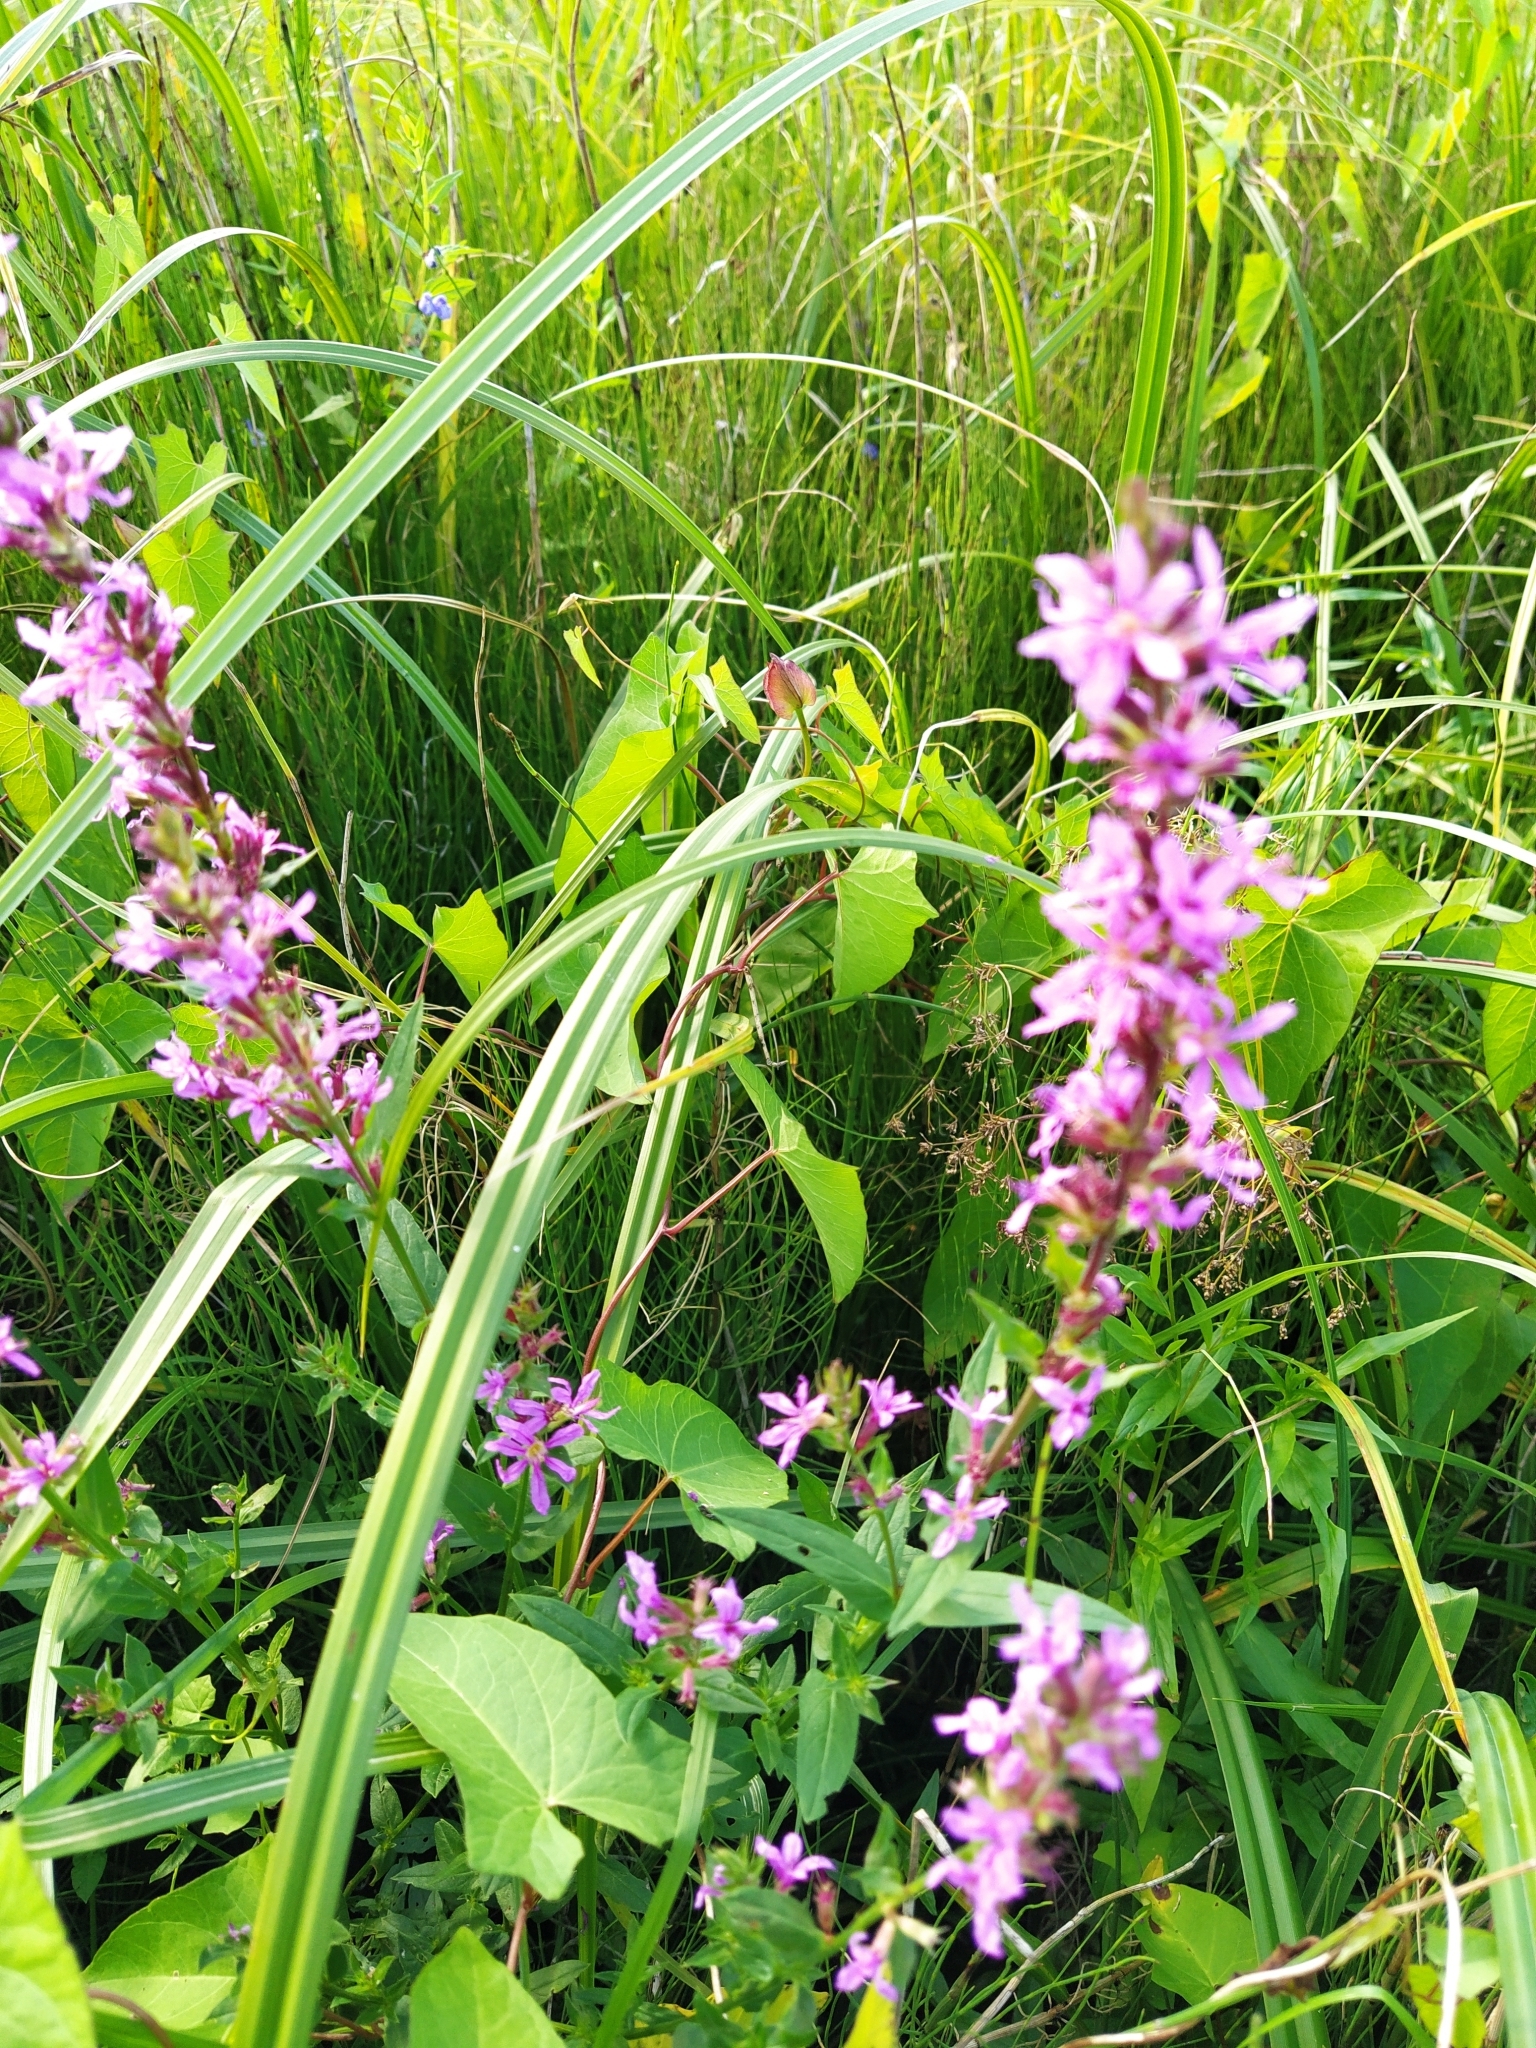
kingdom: Plantae
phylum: Tracheophyta
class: Magnoliopsida
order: Myrtales
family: Lythraceae
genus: Lythrum
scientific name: Lythrum salicaria
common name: Purple loosestrife
